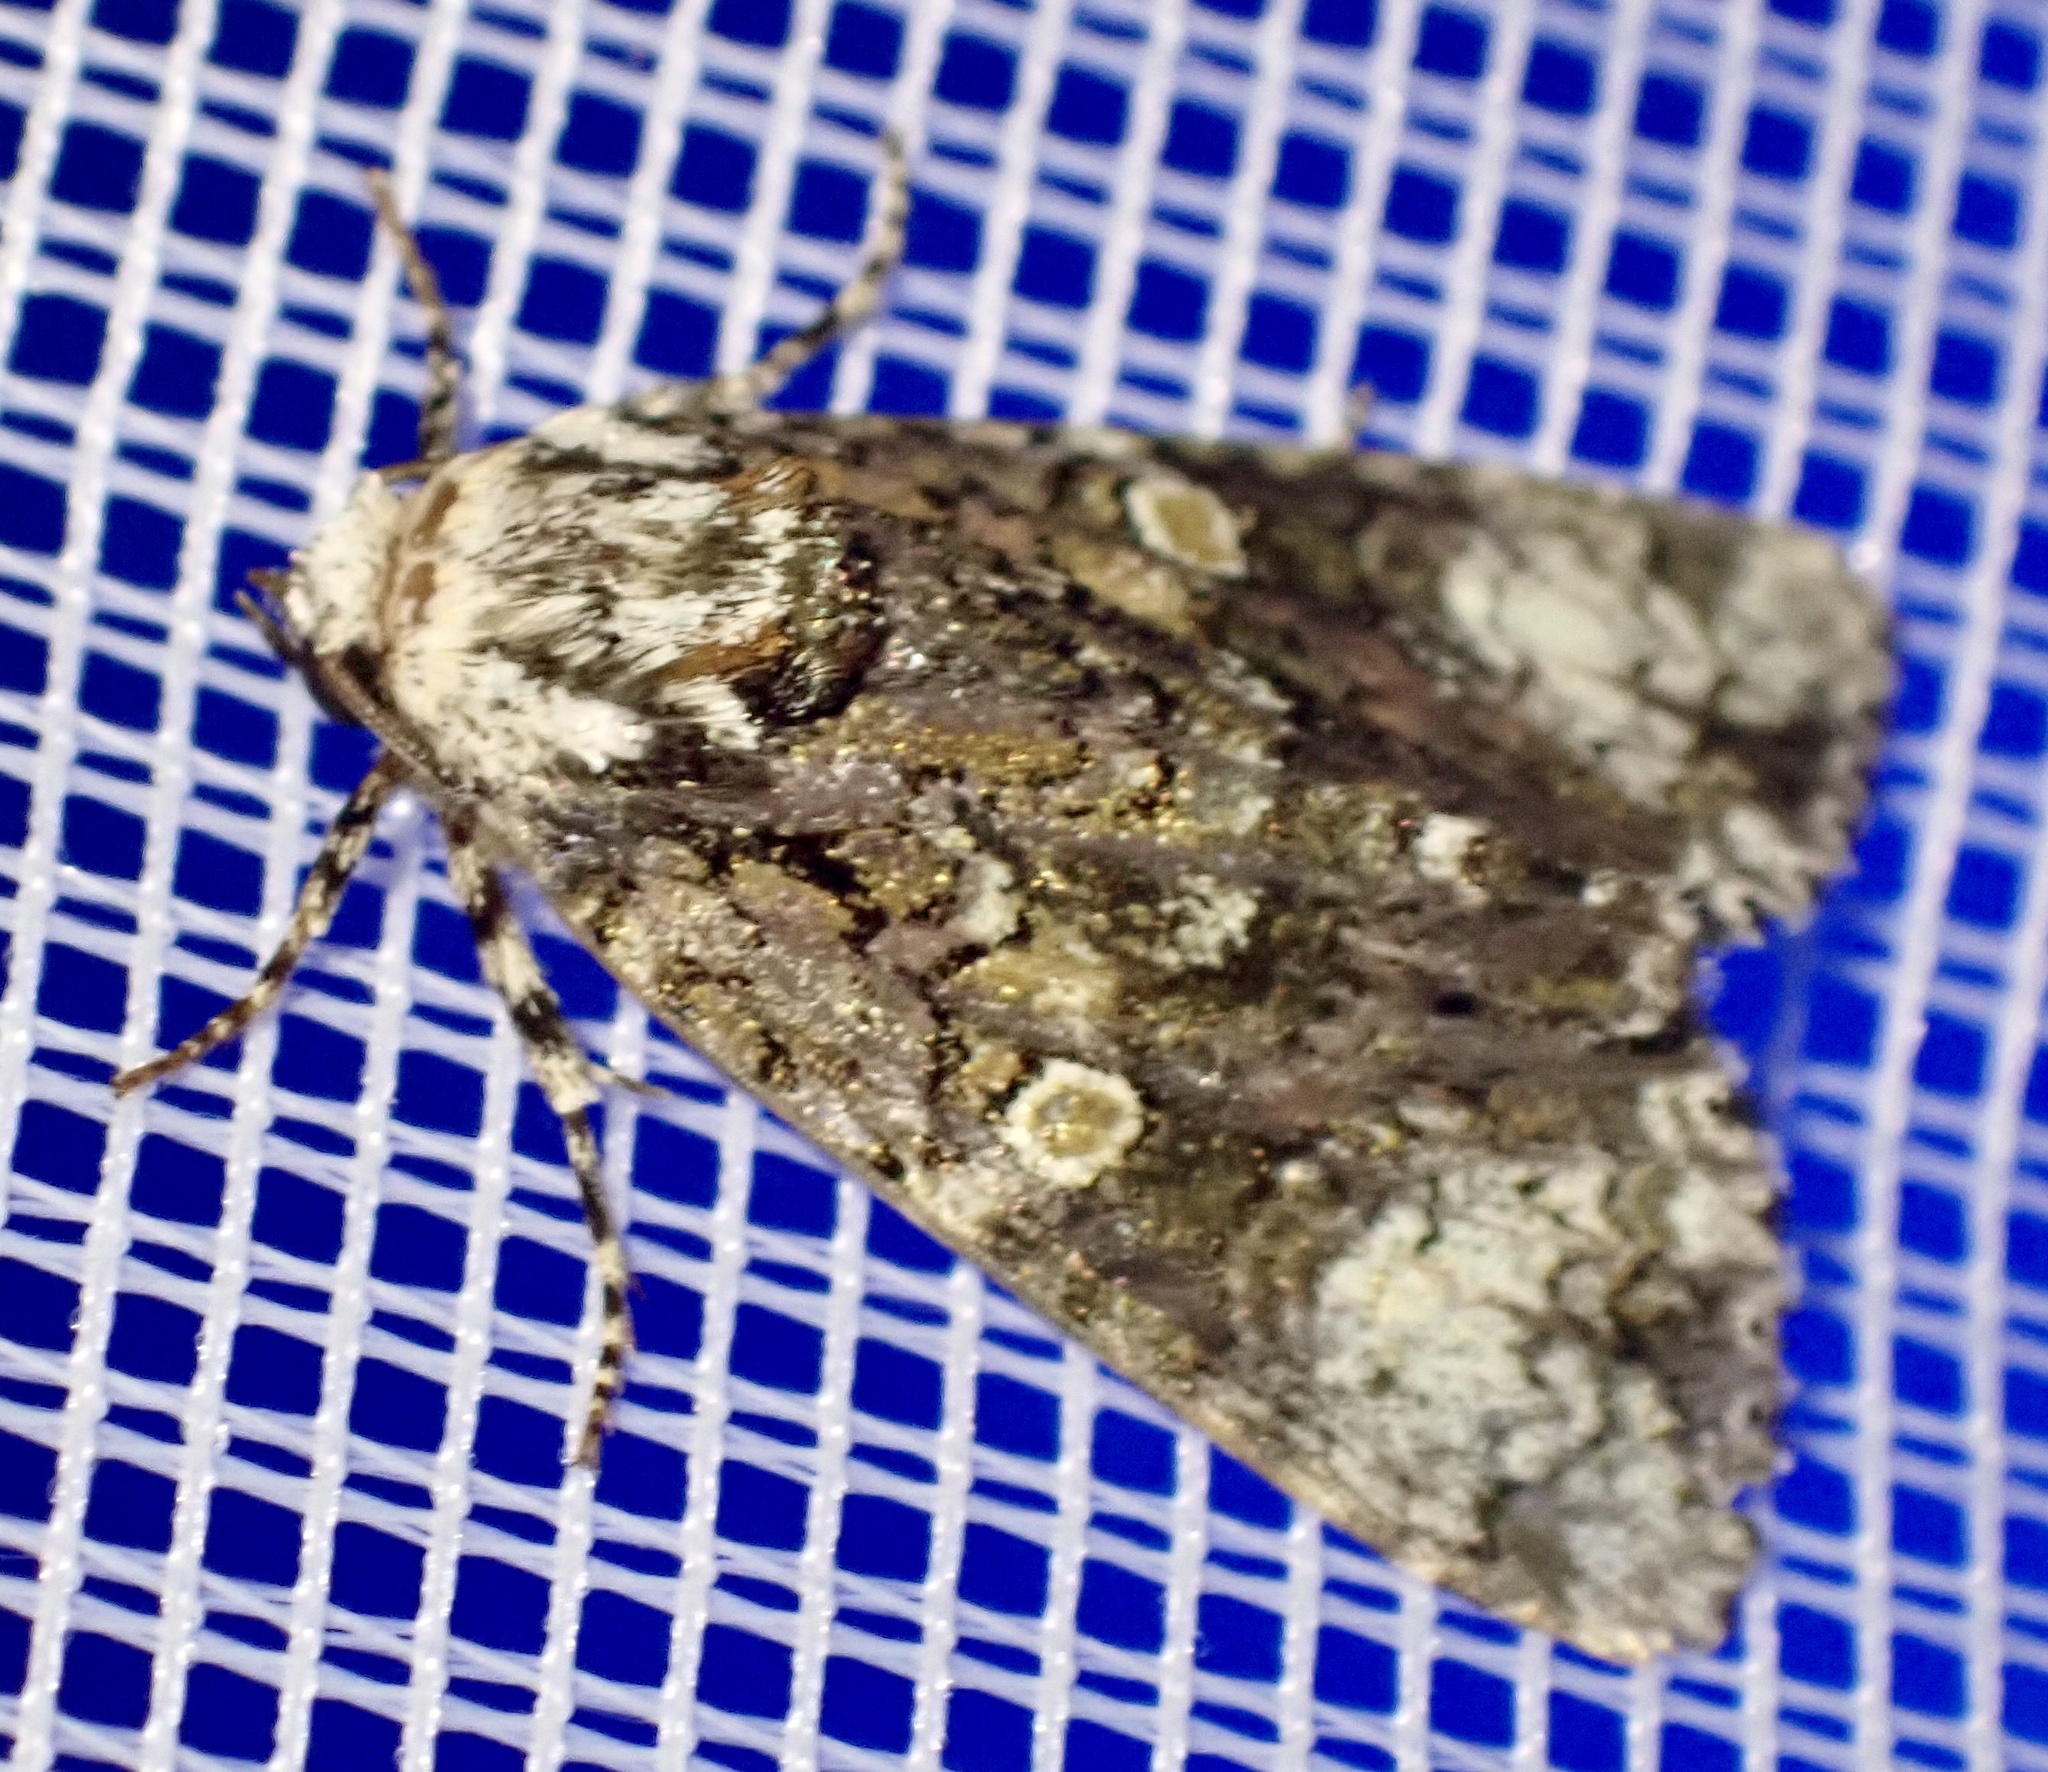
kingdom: Animalia
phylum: Arthropoda
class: Insecta
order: Lepidoptera
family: Noctuidae
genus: Craniophora
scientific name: Craniophora ligustri
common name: Coronet
